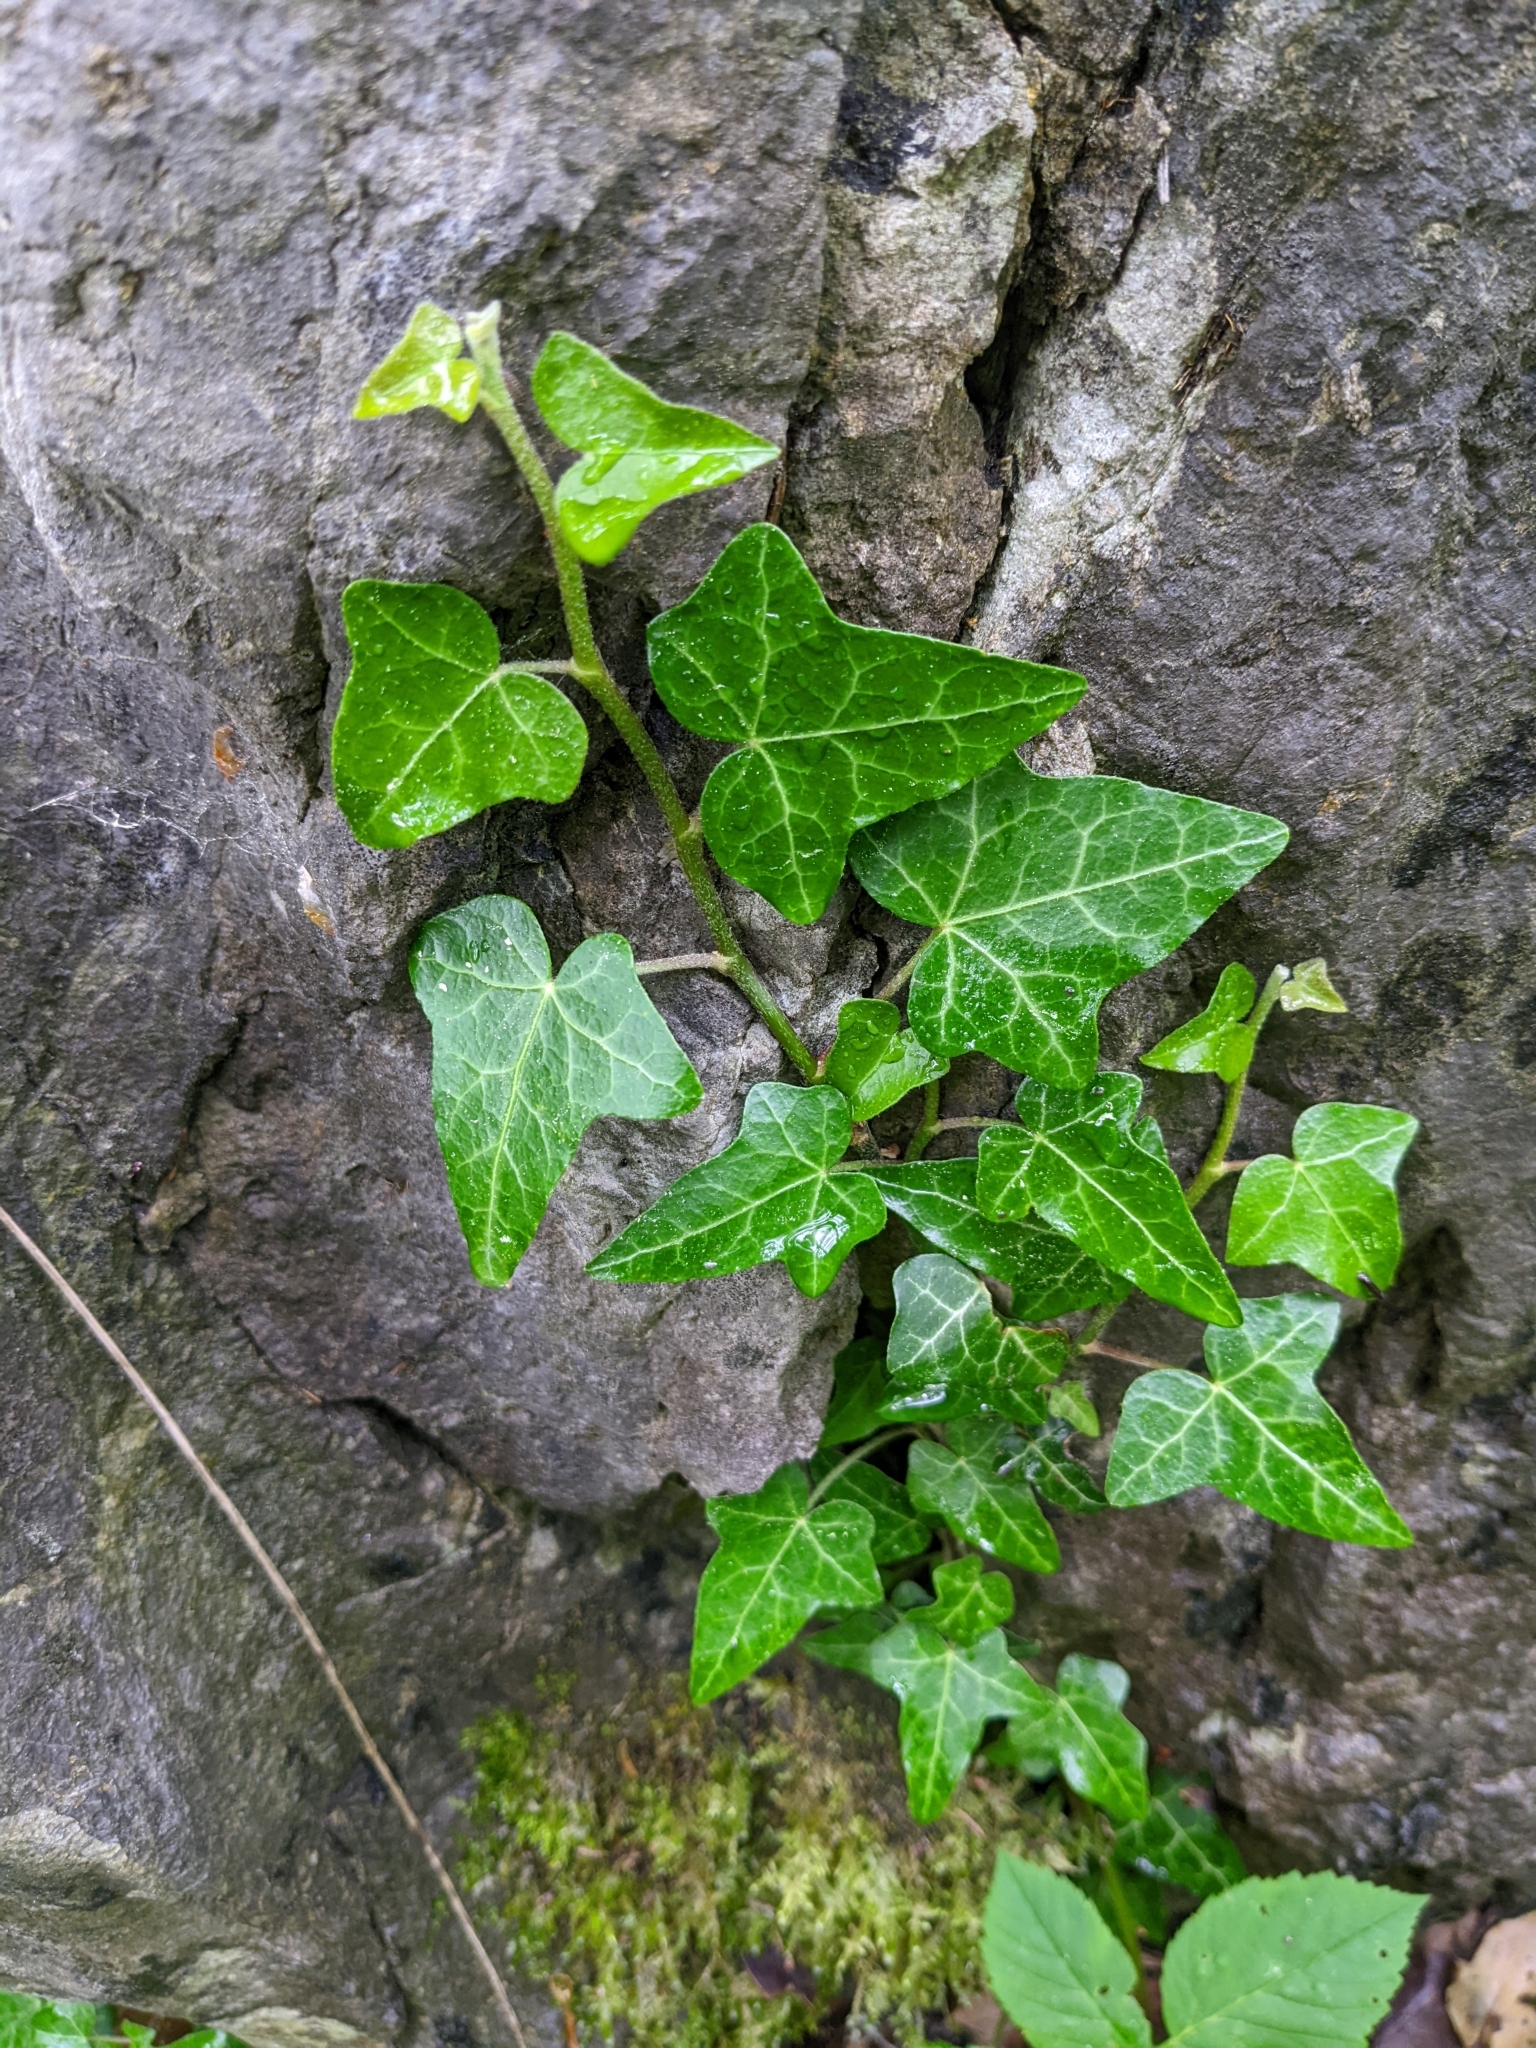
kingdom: Plantae
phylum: Tracheophyta
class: Magnoliopsida
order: Apiales
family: Araliaceae
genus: Hedera
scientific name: Hedera helix
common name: Ivy
